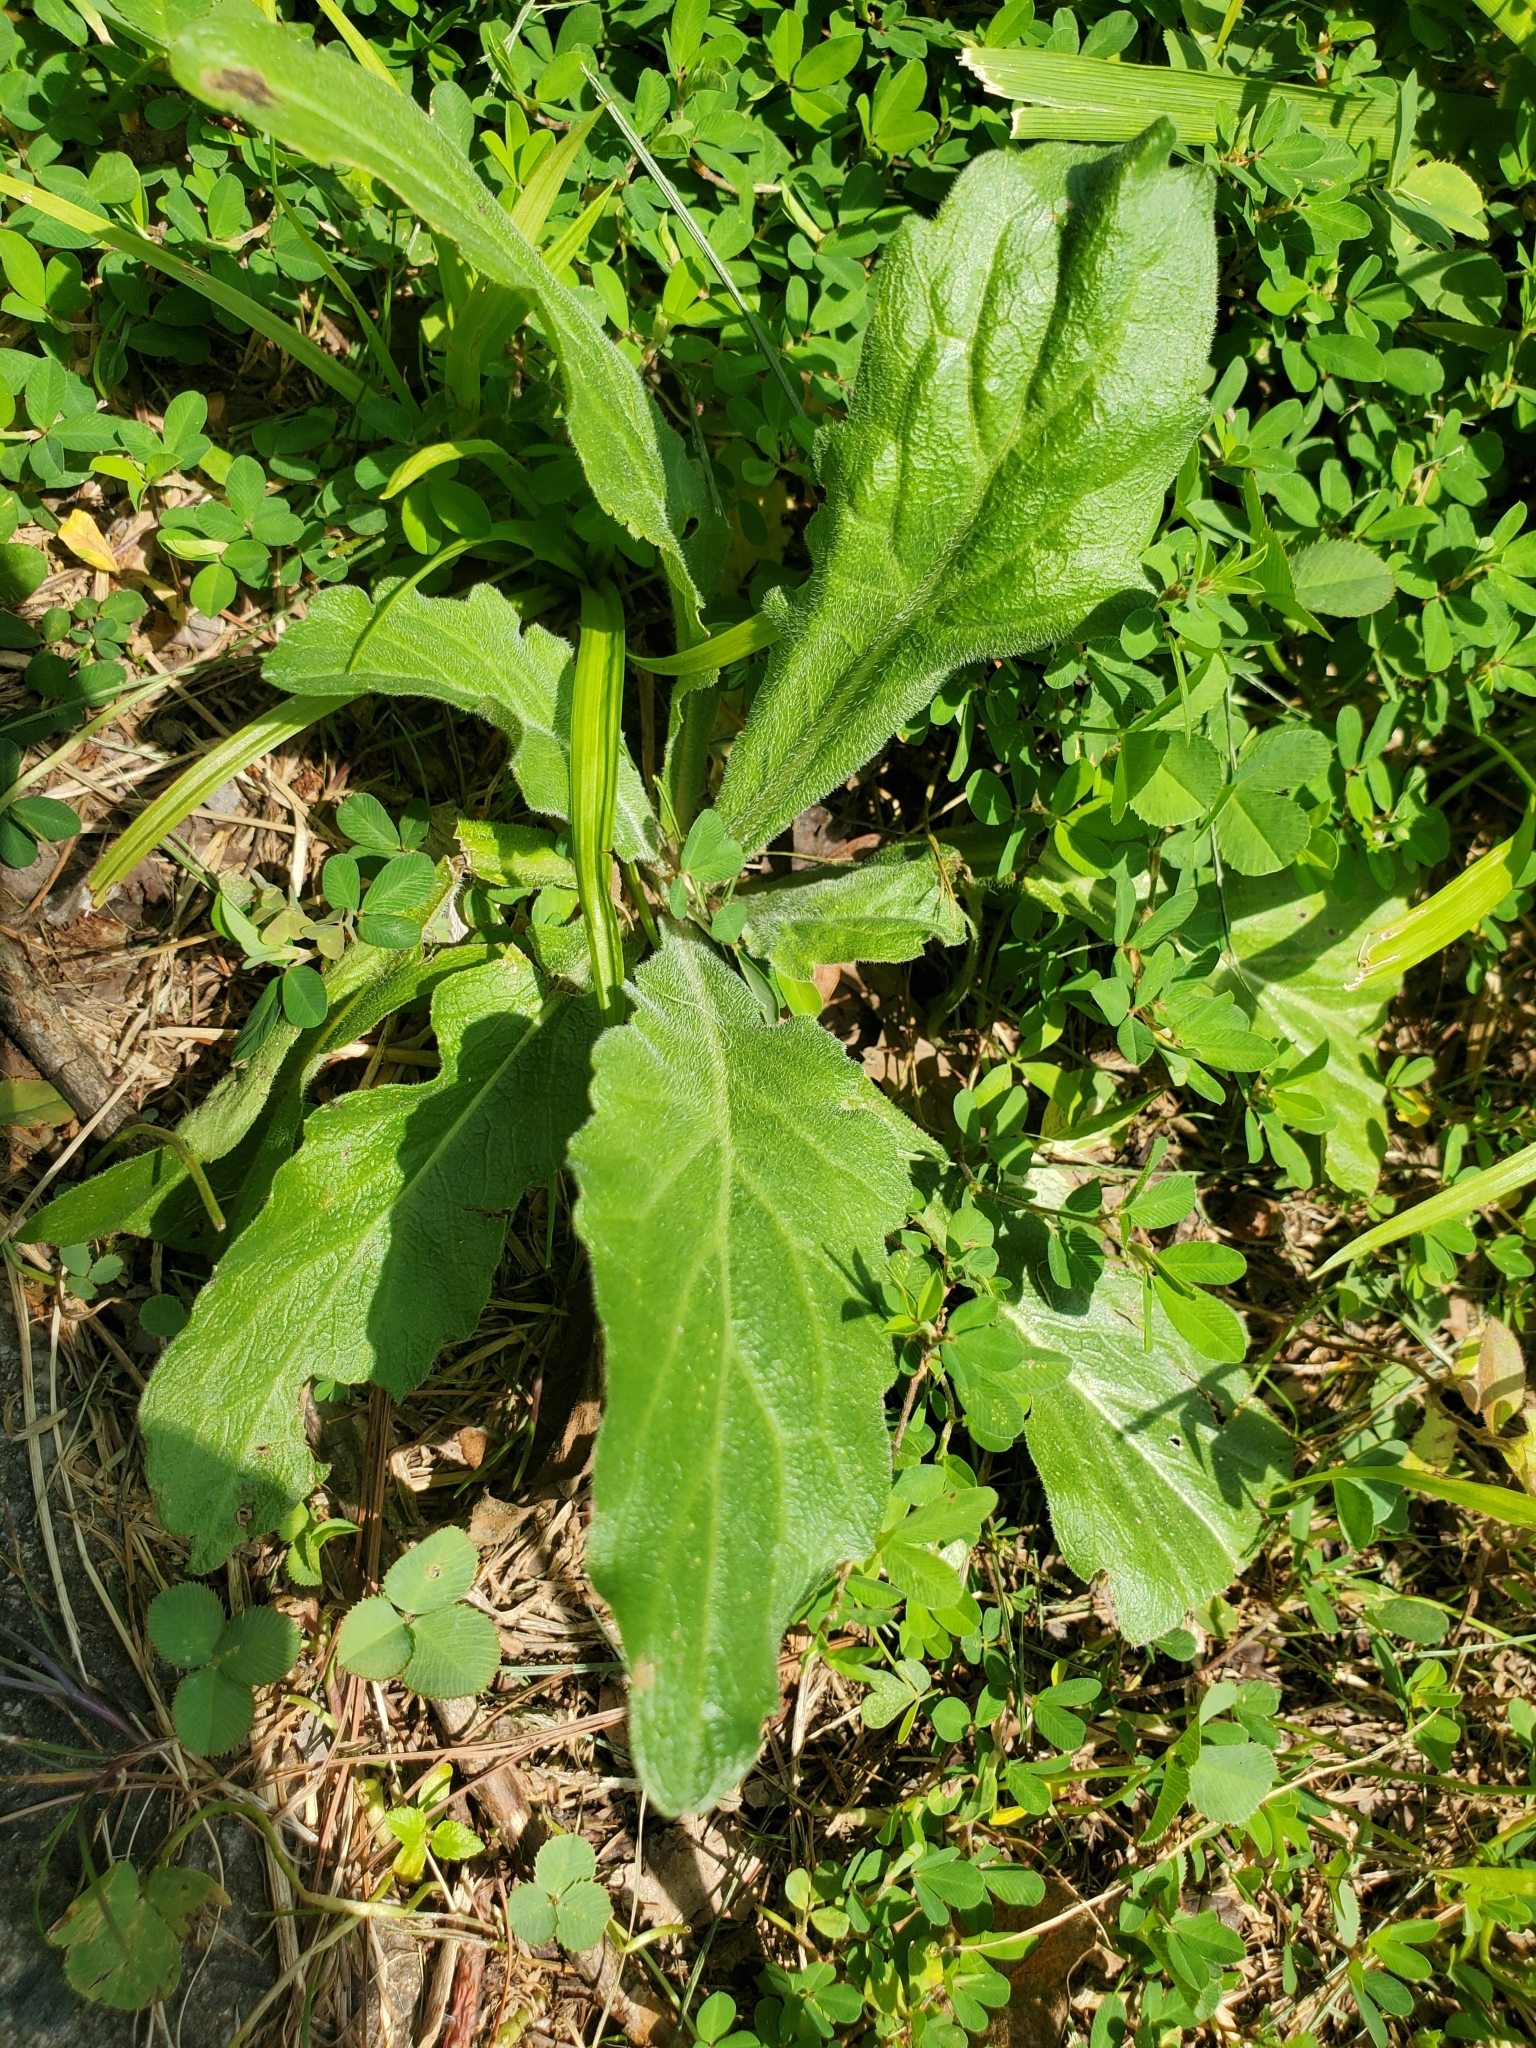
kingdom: Plantae
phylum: Tracheophyta
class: Magnoliopsida
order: Asterales
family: Asteraceae
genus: Erigeron
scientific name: Erigeron philadelphicus
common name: Robin's-plantain
